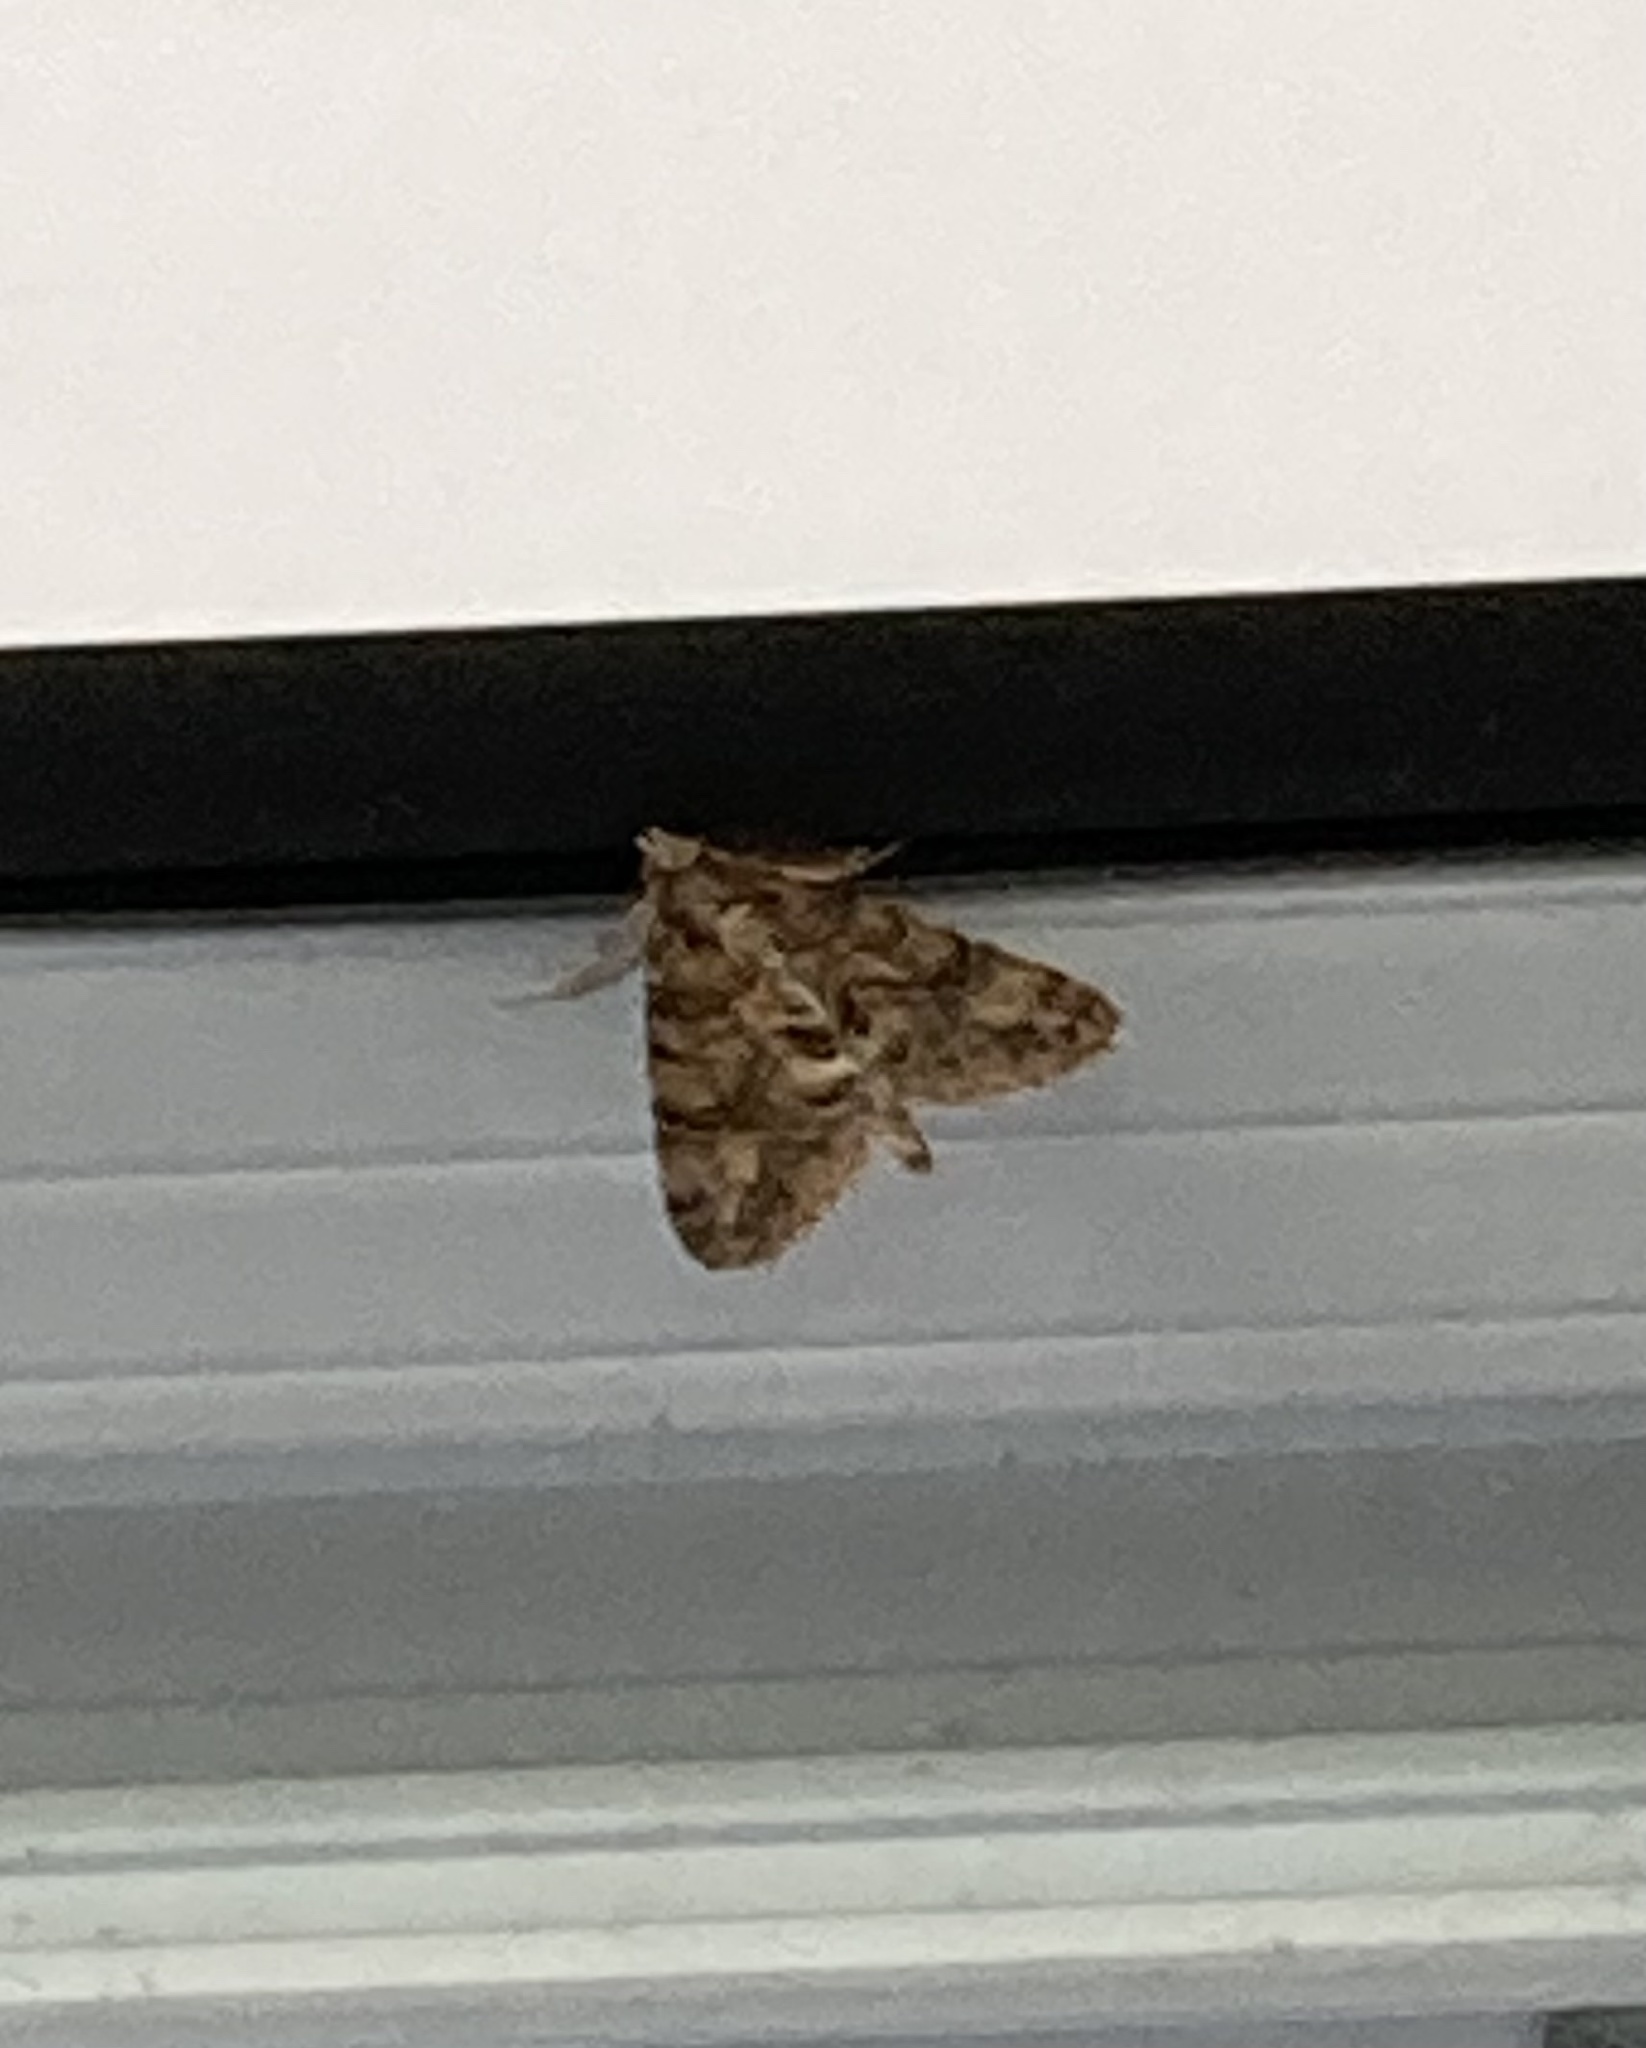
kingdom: Animalia
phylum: Arthropoda
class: Insecta
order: Lepidoptera
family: Geometridae
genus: Pseudocoremia
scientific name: Pseudocoremia suavis
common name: Common forest looper
